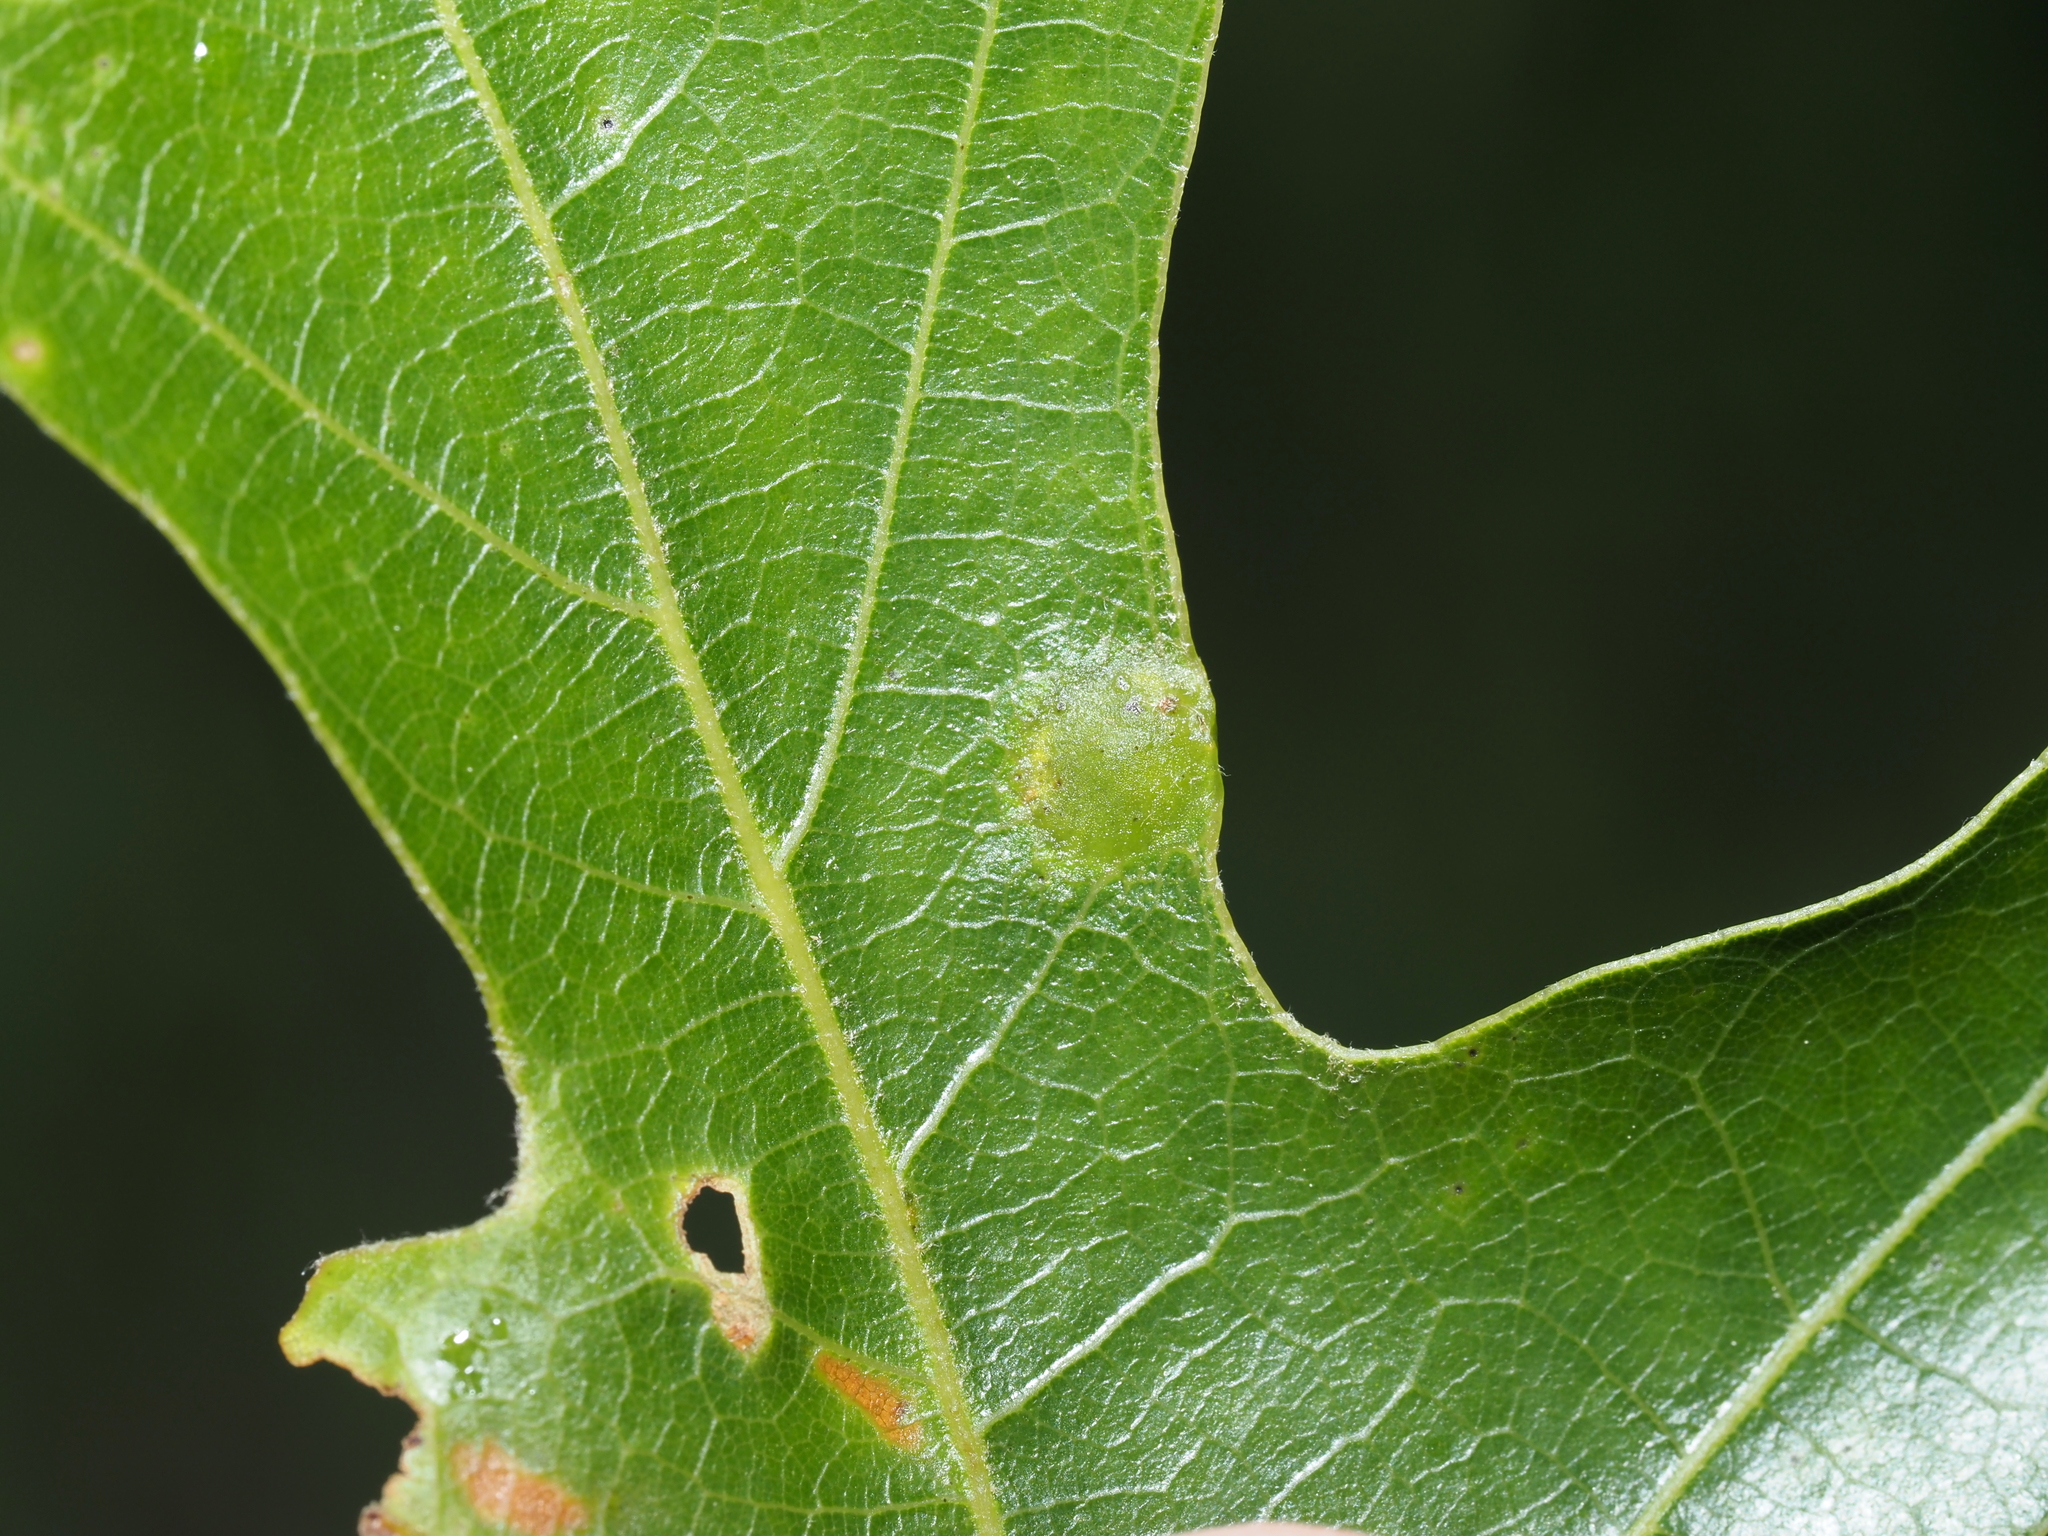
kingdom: Animalia
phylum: Arthropoda
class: Insecta
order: Hymenoptera
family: Cynipidae
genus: Dryocosmus
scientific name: Dryocosmus
